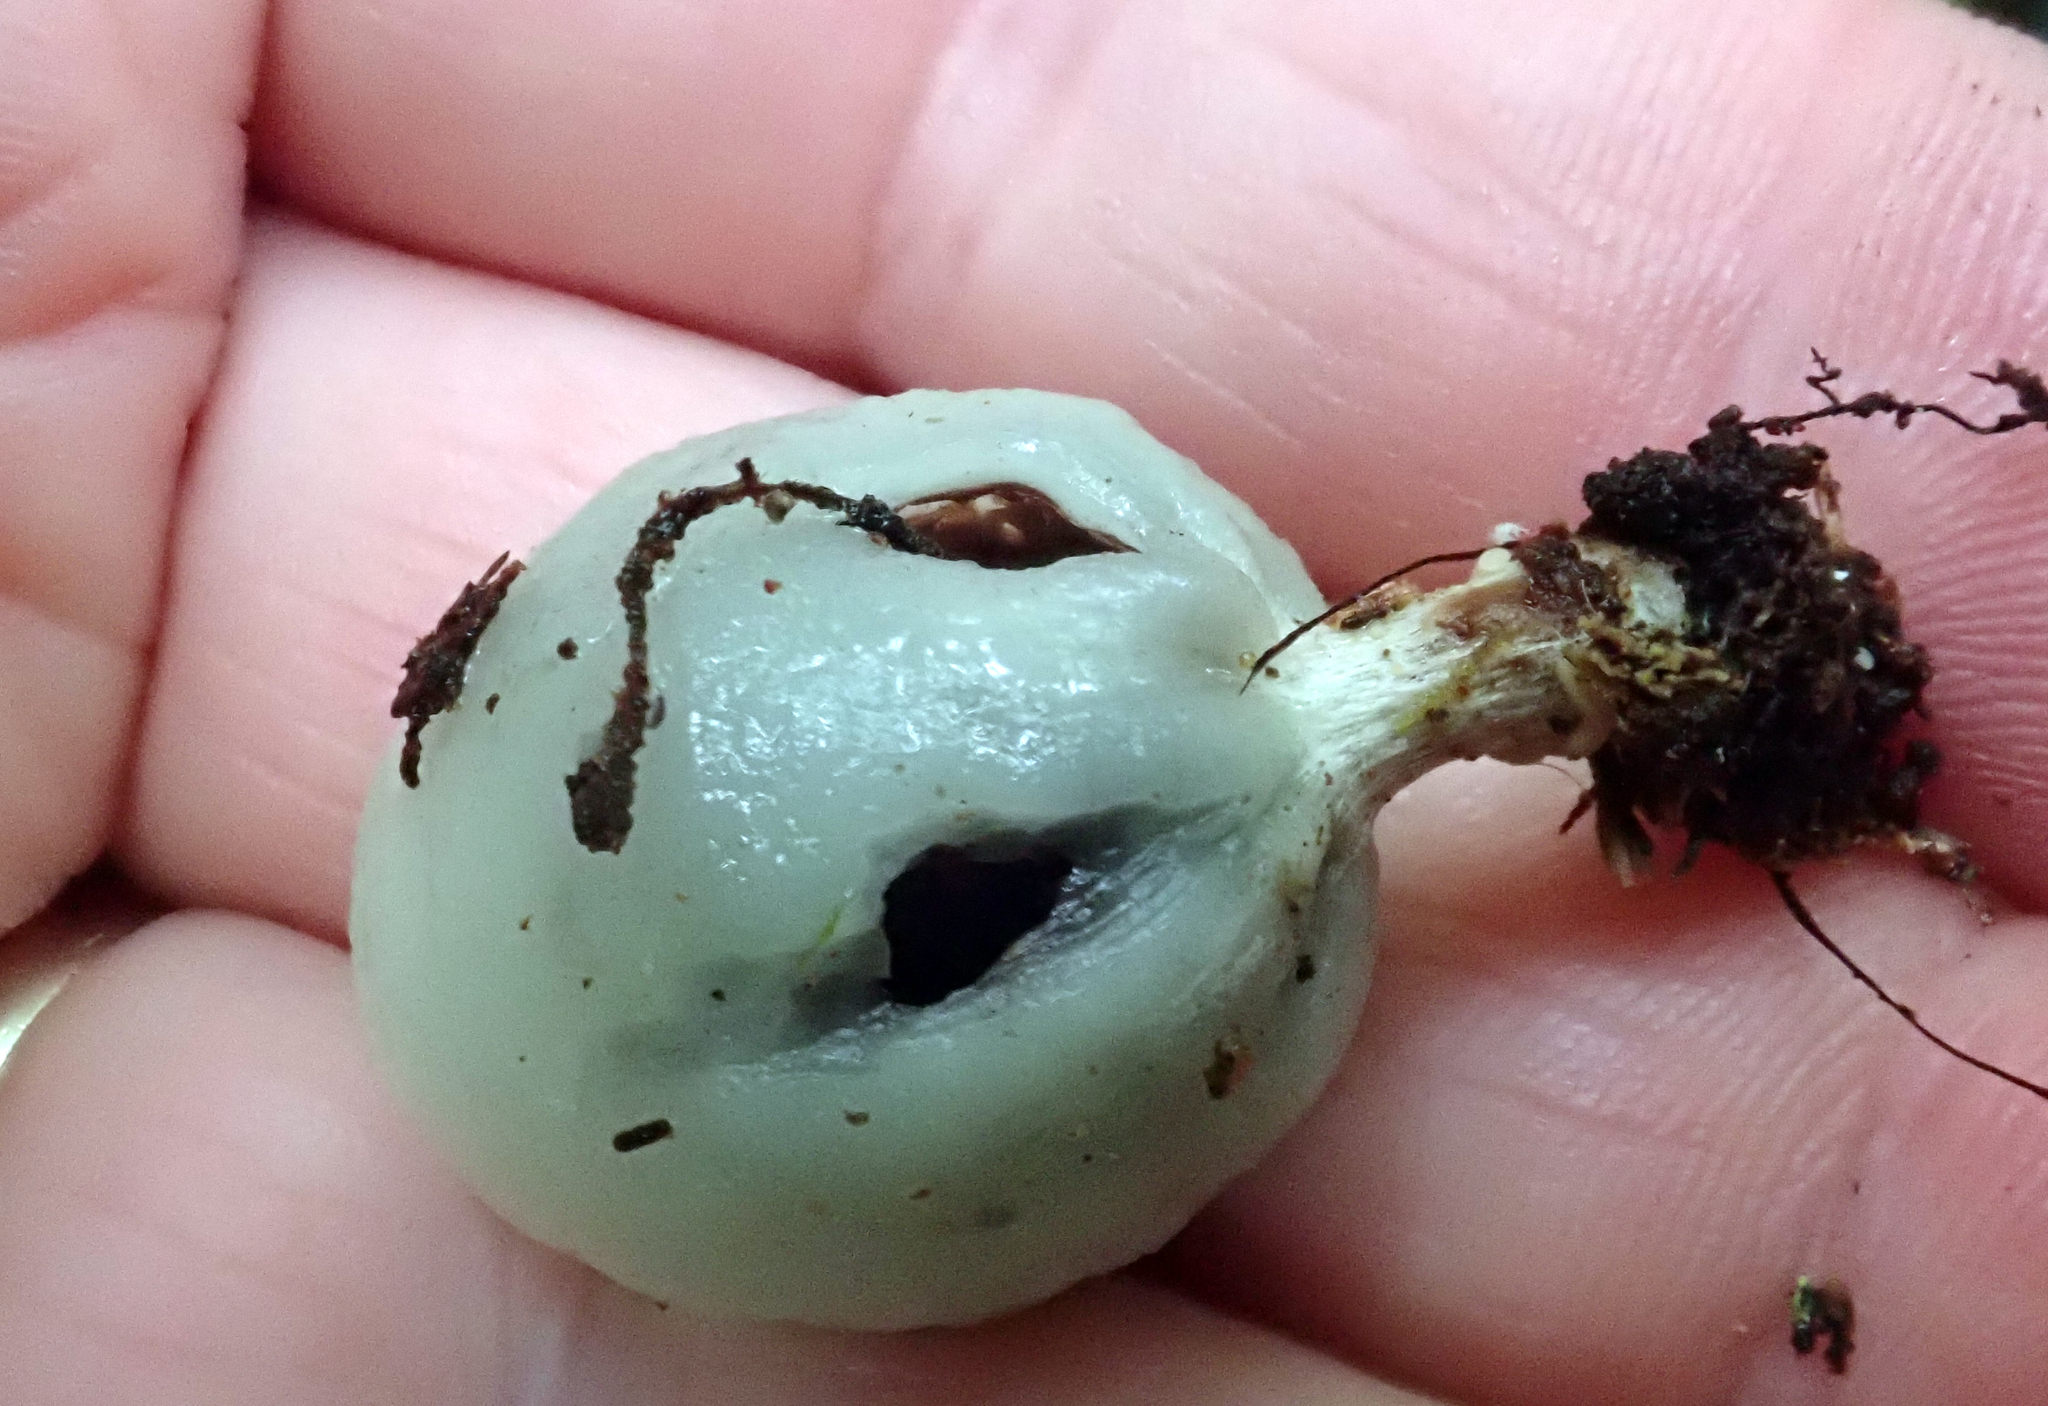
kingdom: Fungi
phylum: Basidiomycota
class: Agaricomycetes
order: Agaricales
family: Hymenogastraceae
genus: Psilocybe
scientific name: Psilocybe weraroa
